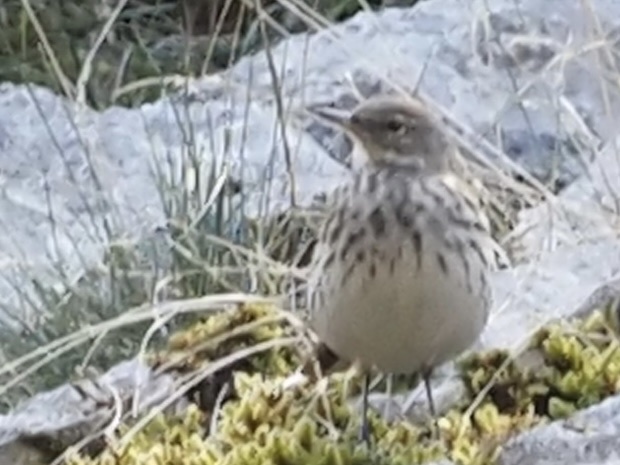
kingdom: Animalia
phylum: Chordata
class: Aves
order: Passeriformes
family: Motacillidae
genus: Anthus
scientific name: Anthus spinoletta
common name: Water pipit
